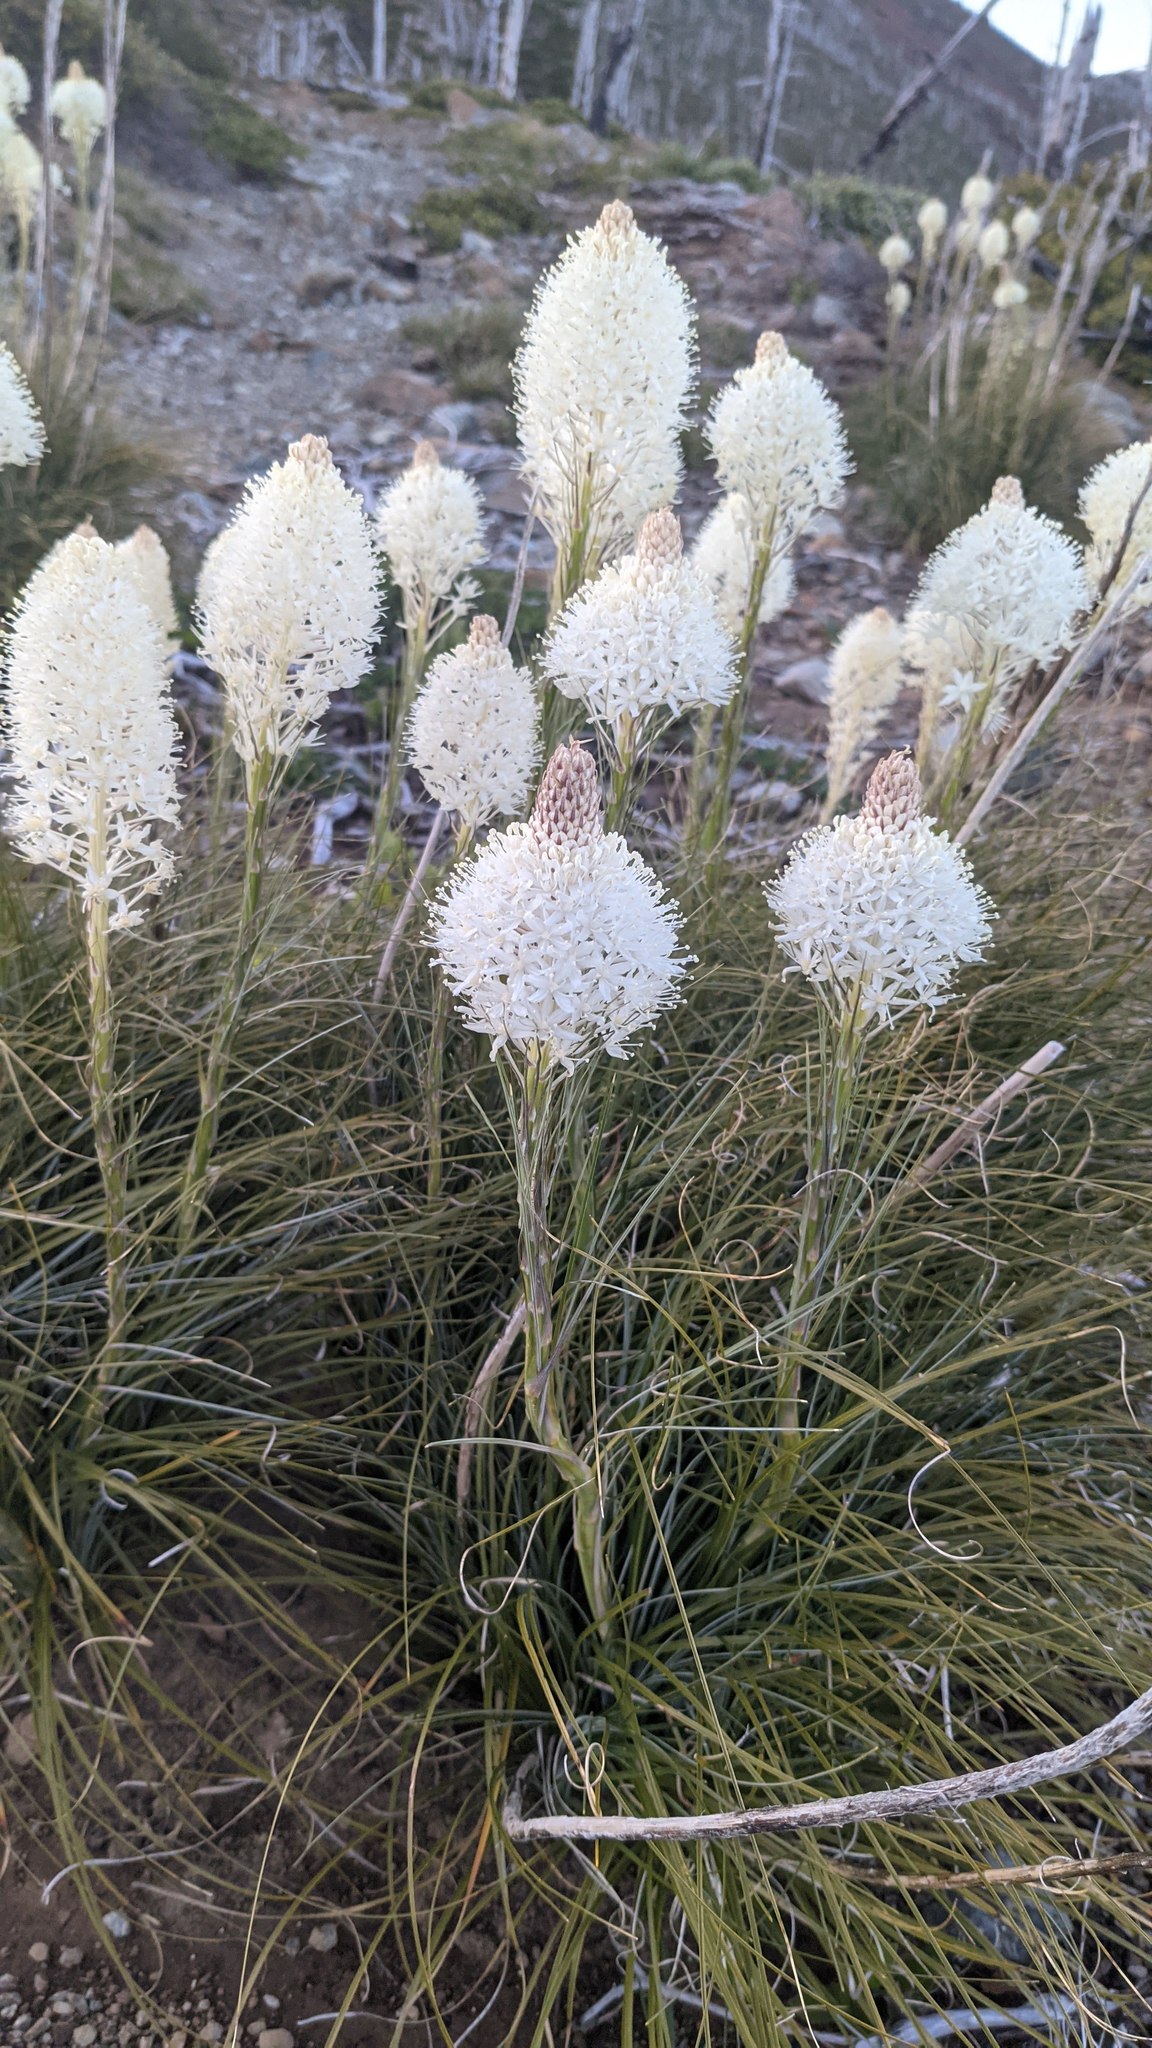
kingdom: Plantae
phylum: Tracheophyta
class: Liliopsida
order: Liliales
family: Melanthiaceae
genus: Xerophyllum
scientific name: Xerophyllum tenax
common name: Bear-grass
